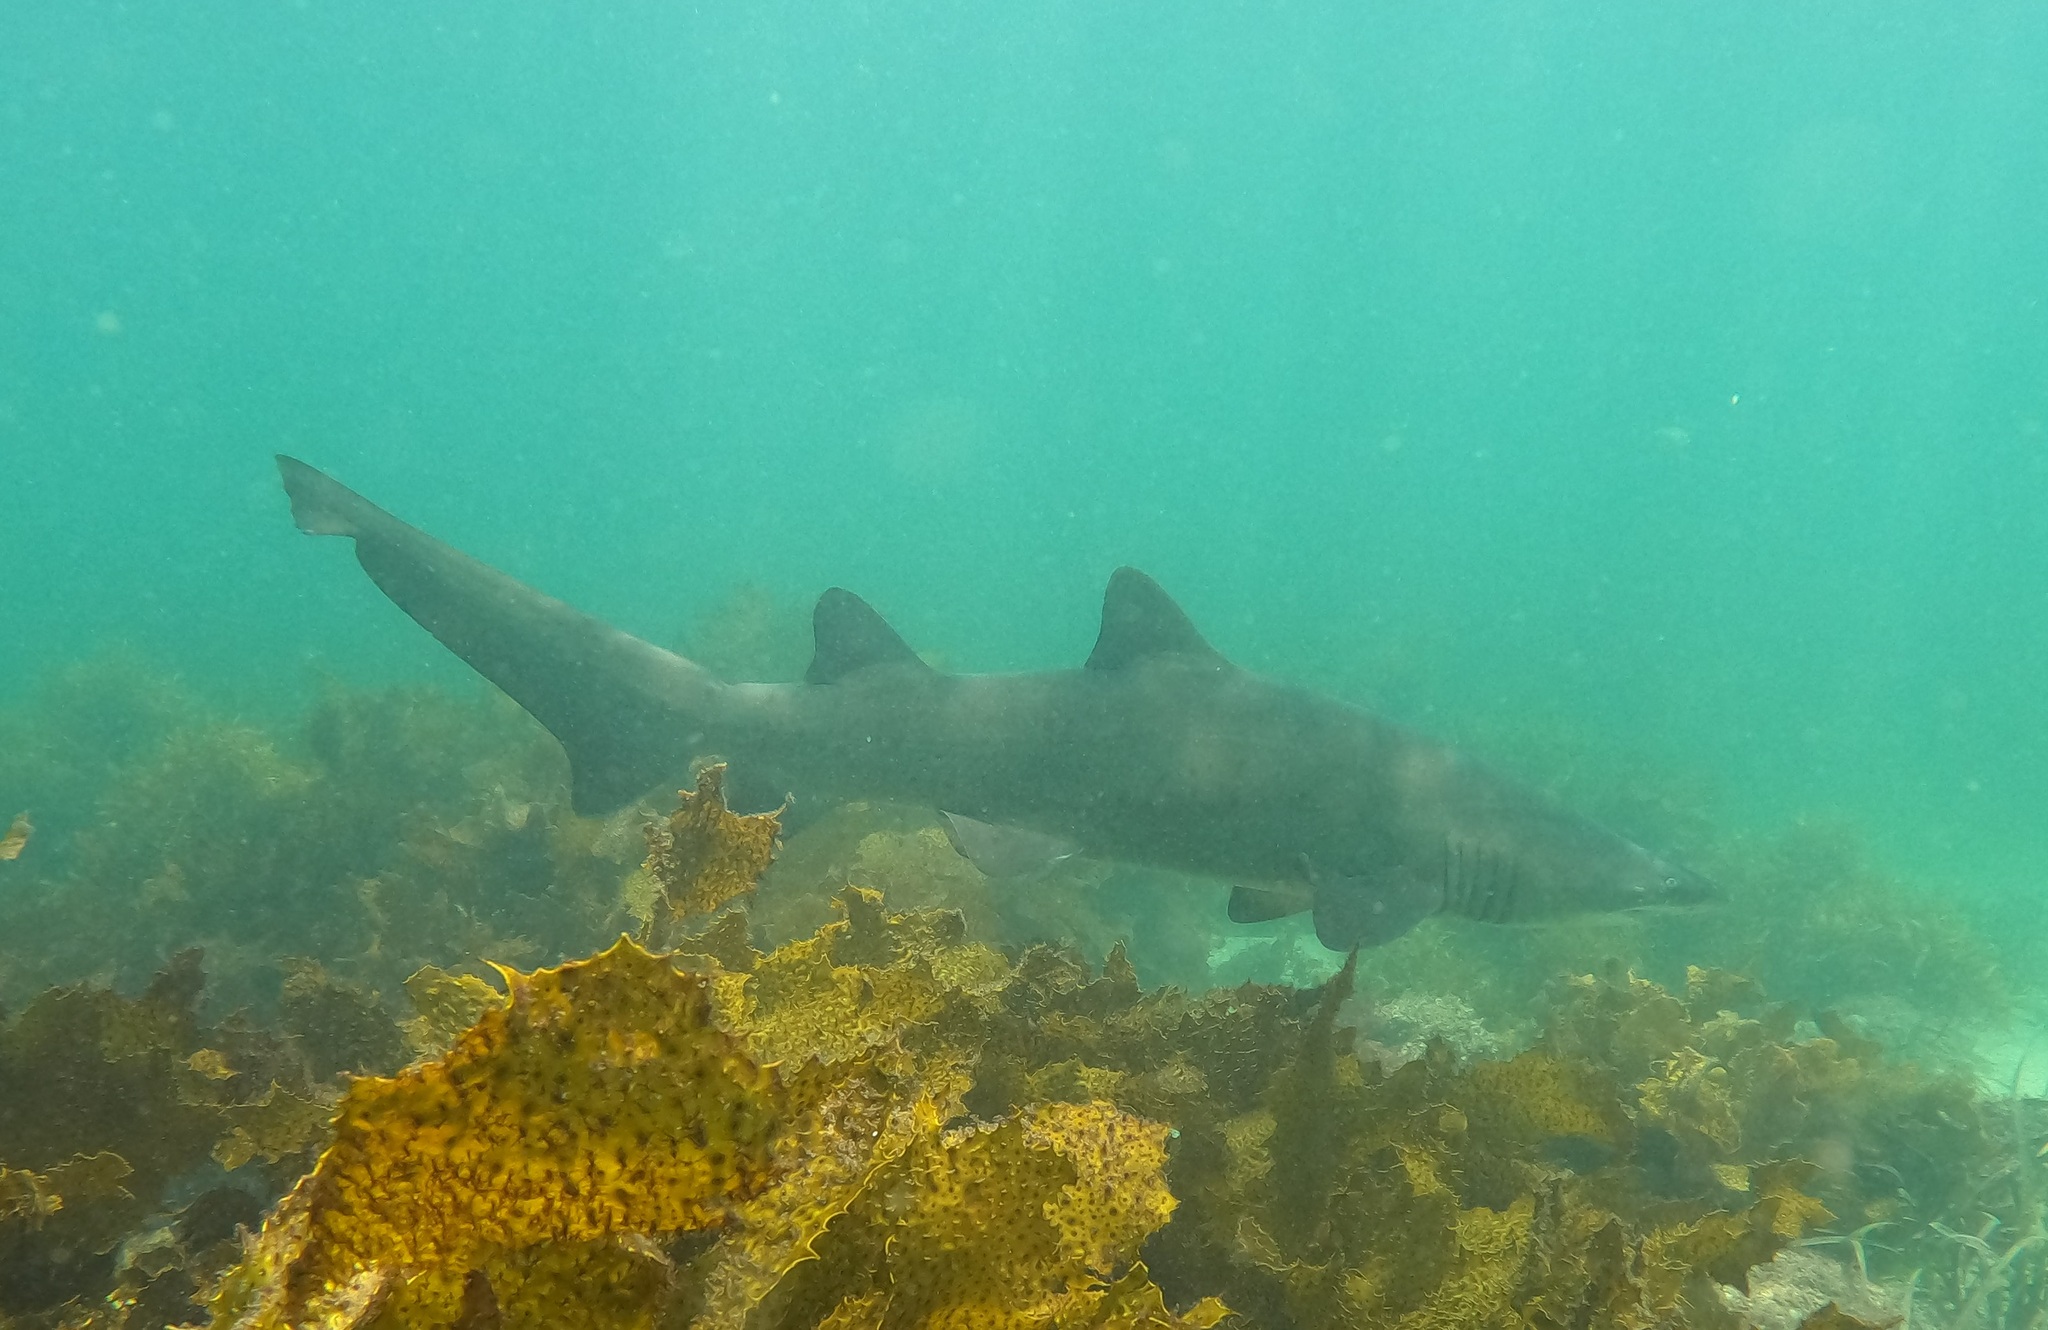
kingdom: Animalia
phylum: Chordata
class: Elasmobranchii
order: Lamniformes
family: Odontaspididae
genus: Carcharias
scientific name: Carcharias taurus
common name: Sand shark
